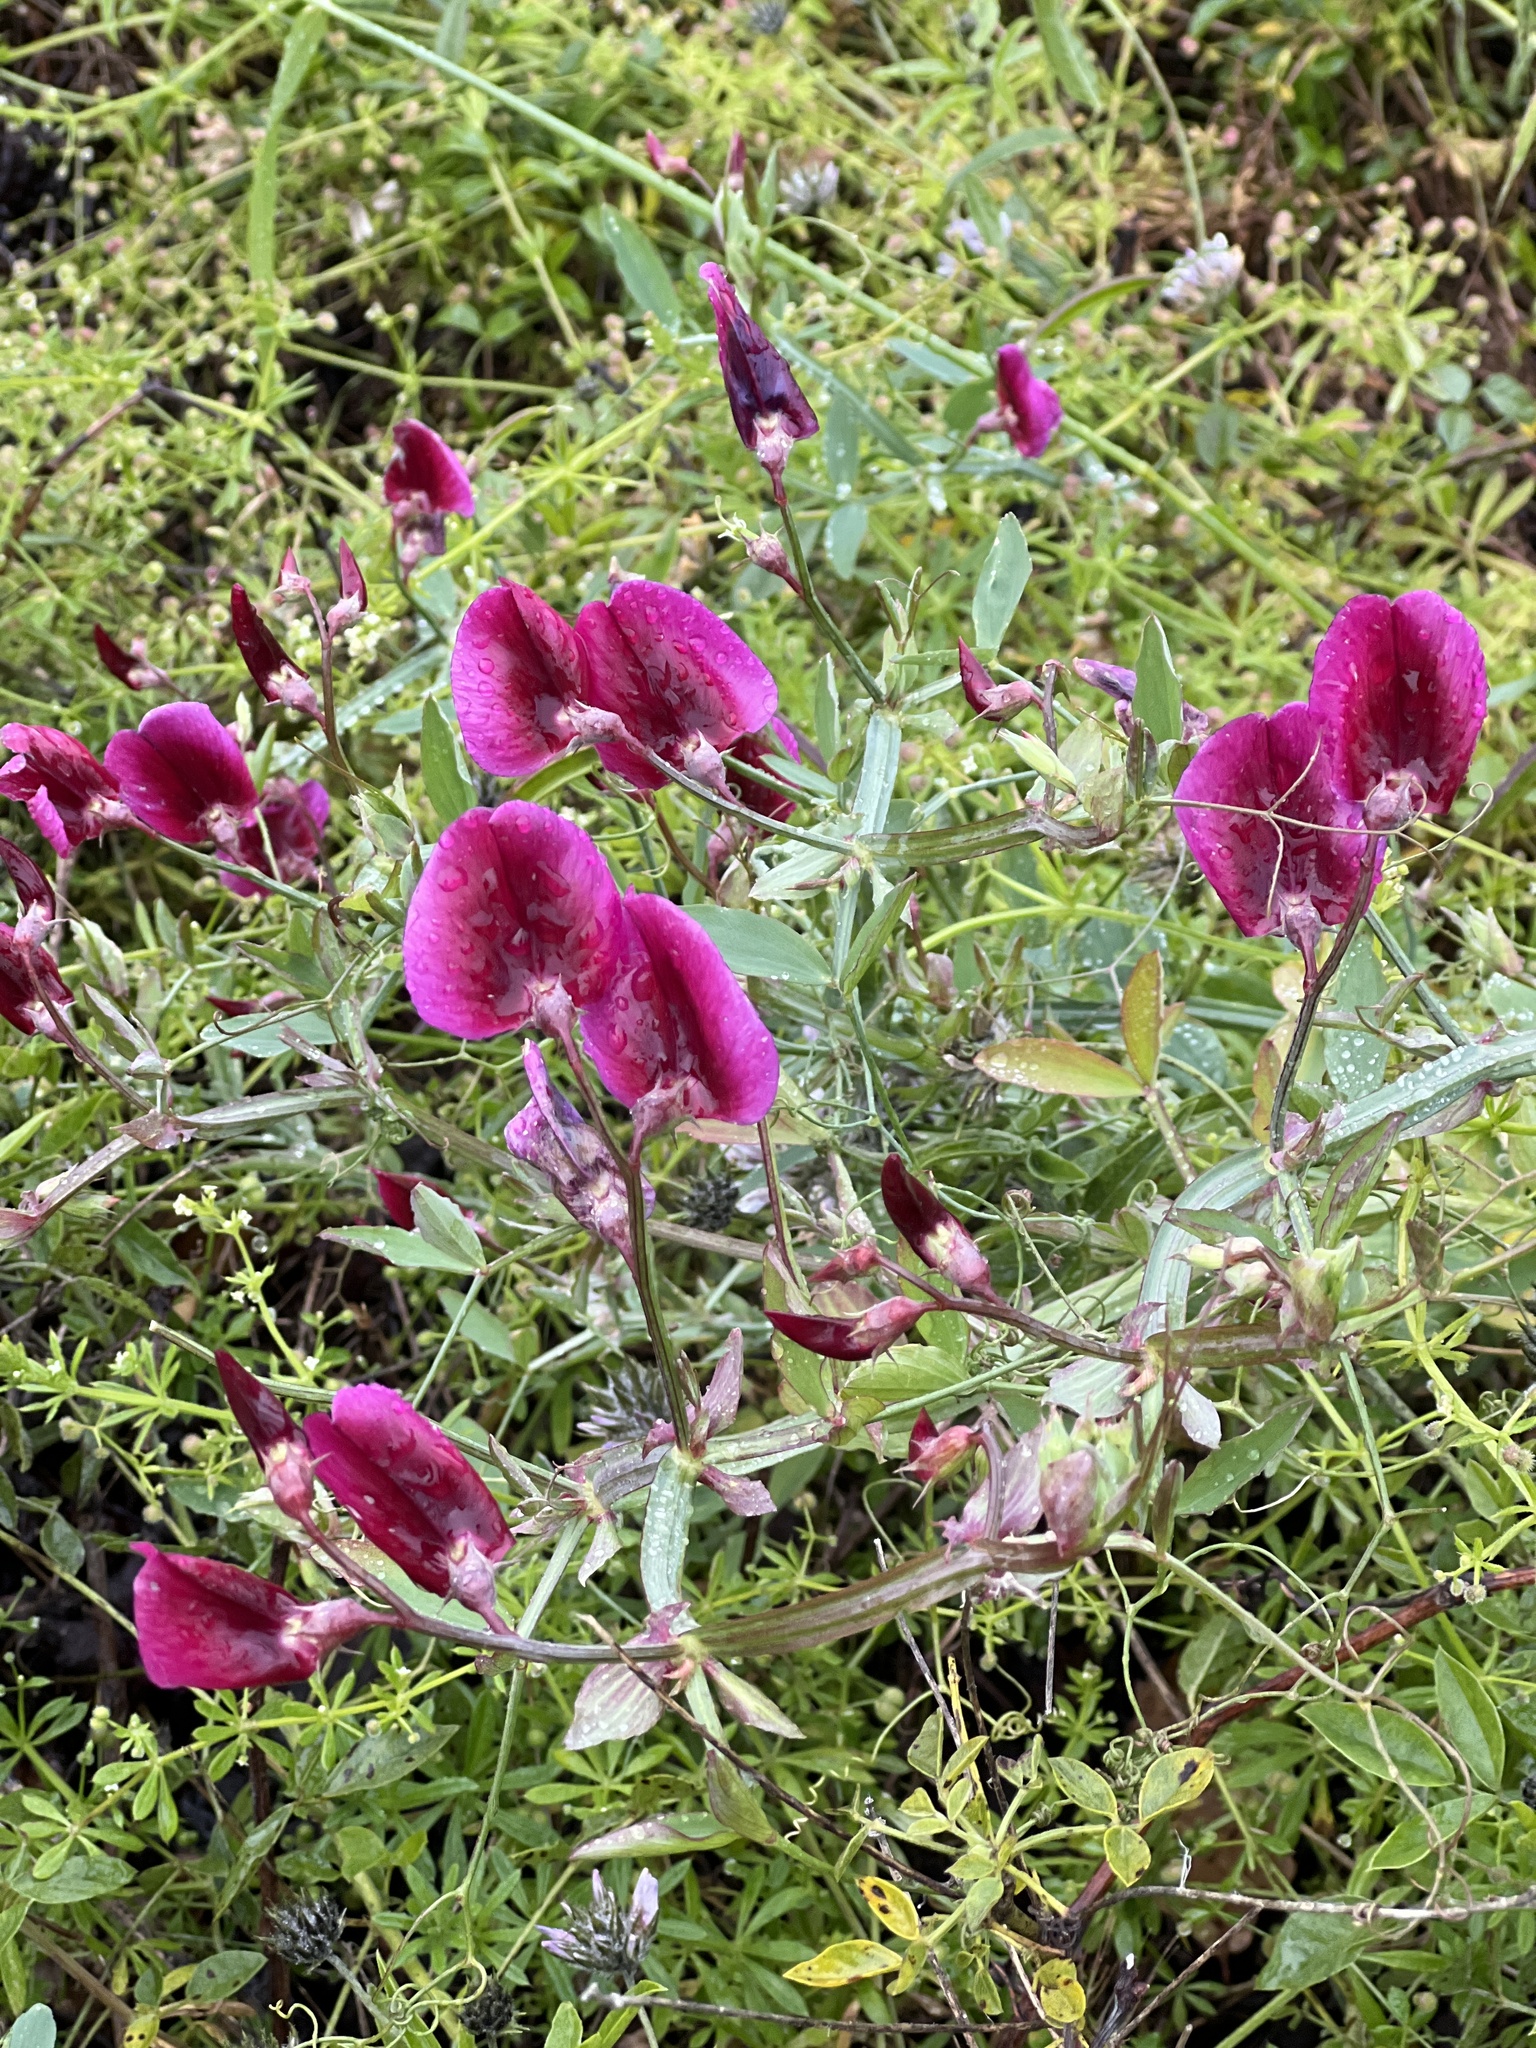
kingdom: Plantae
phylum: Tracheophyta
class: Magnoliopsida
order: Fabales
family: Fabaceae
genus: Lathyrus
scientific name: Lathyrus tingitanus
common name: Tangier pea
